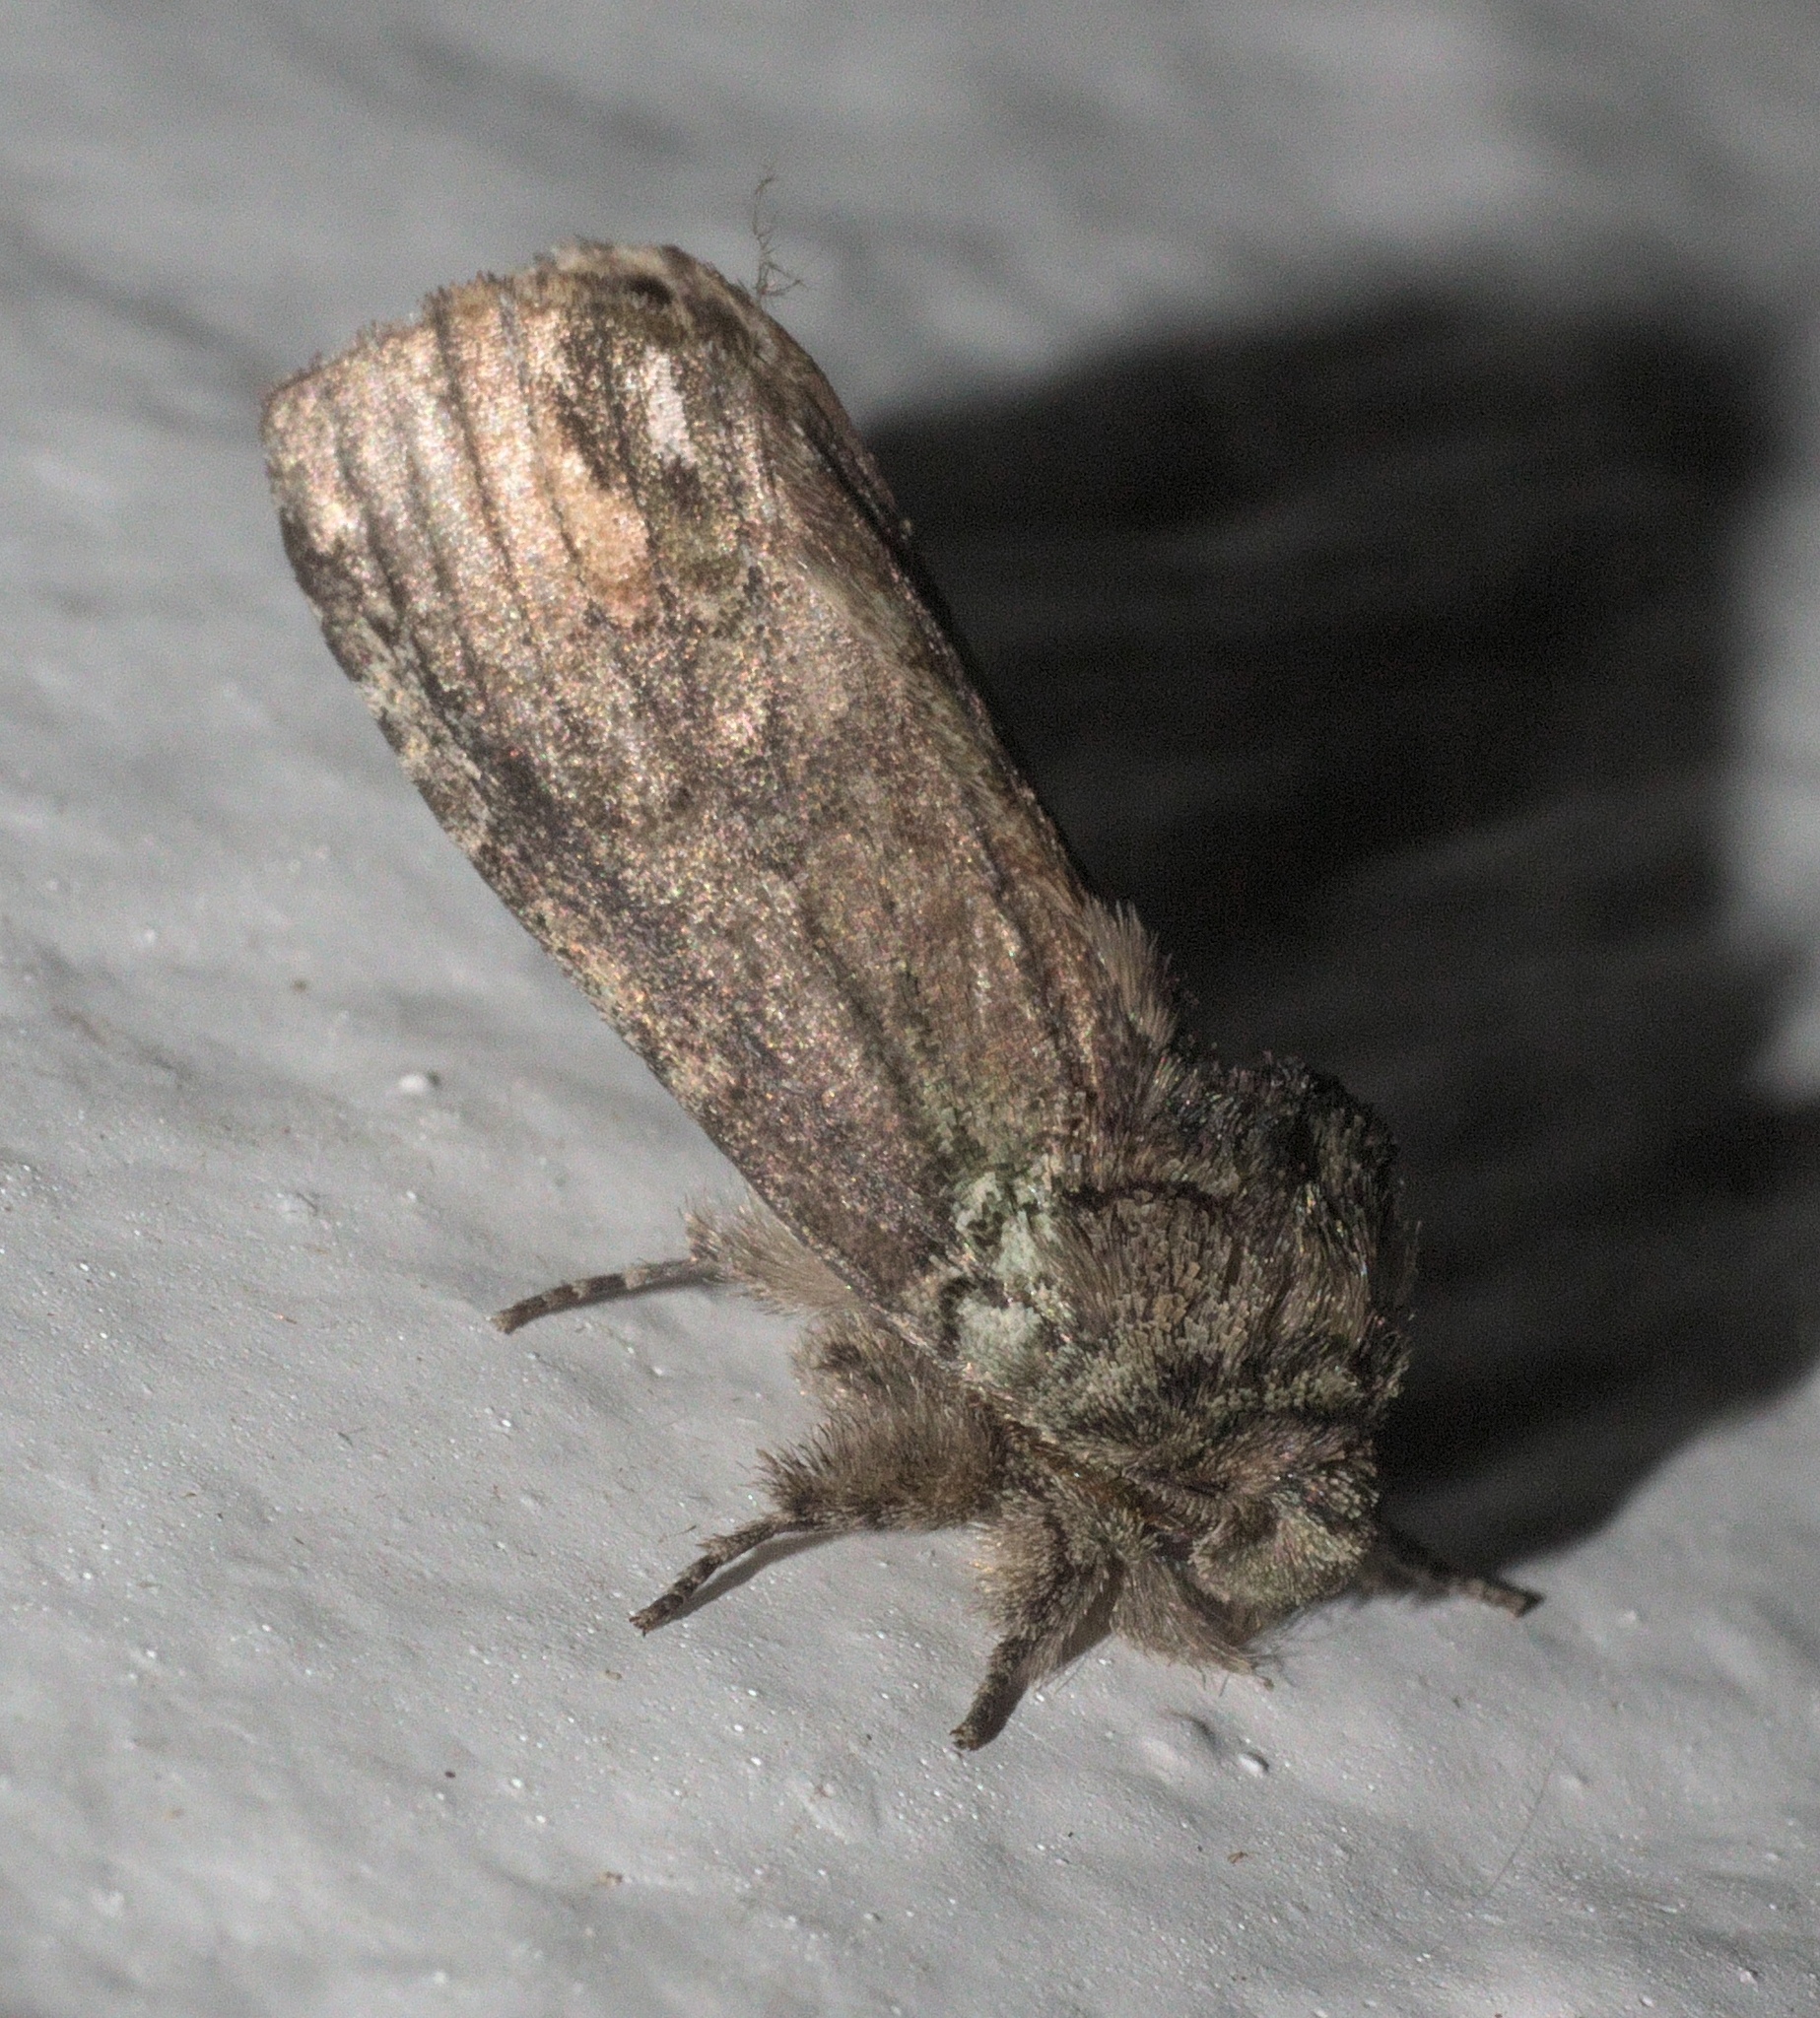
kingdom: Animalia
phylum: Arthropoda
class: Insecta
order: Lepidoptera
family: Notodontidae
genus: Schizura
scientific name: Schizura
